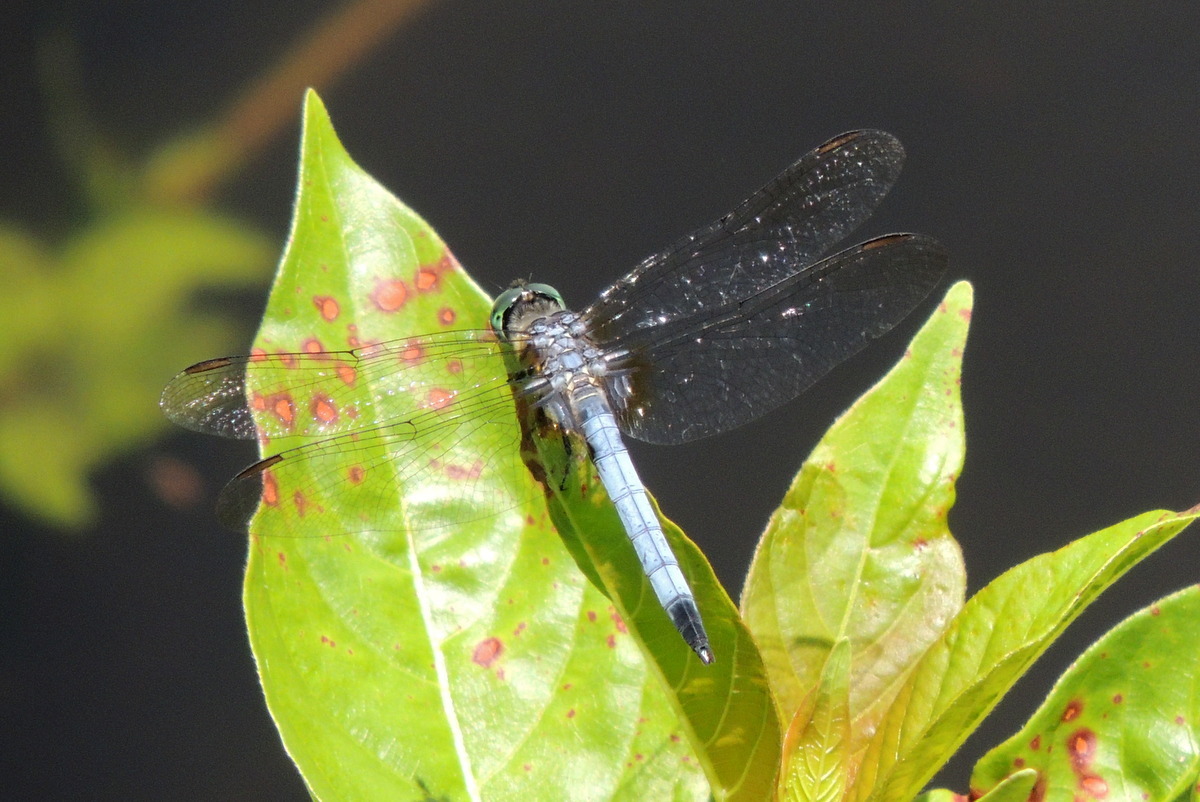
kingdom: Animalia
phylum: Arthropoda
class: Insecta
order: Odonata
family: Libellulidae
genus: Pachydiplax
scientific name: Pachydiplax longipennis
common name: Blue dasher
